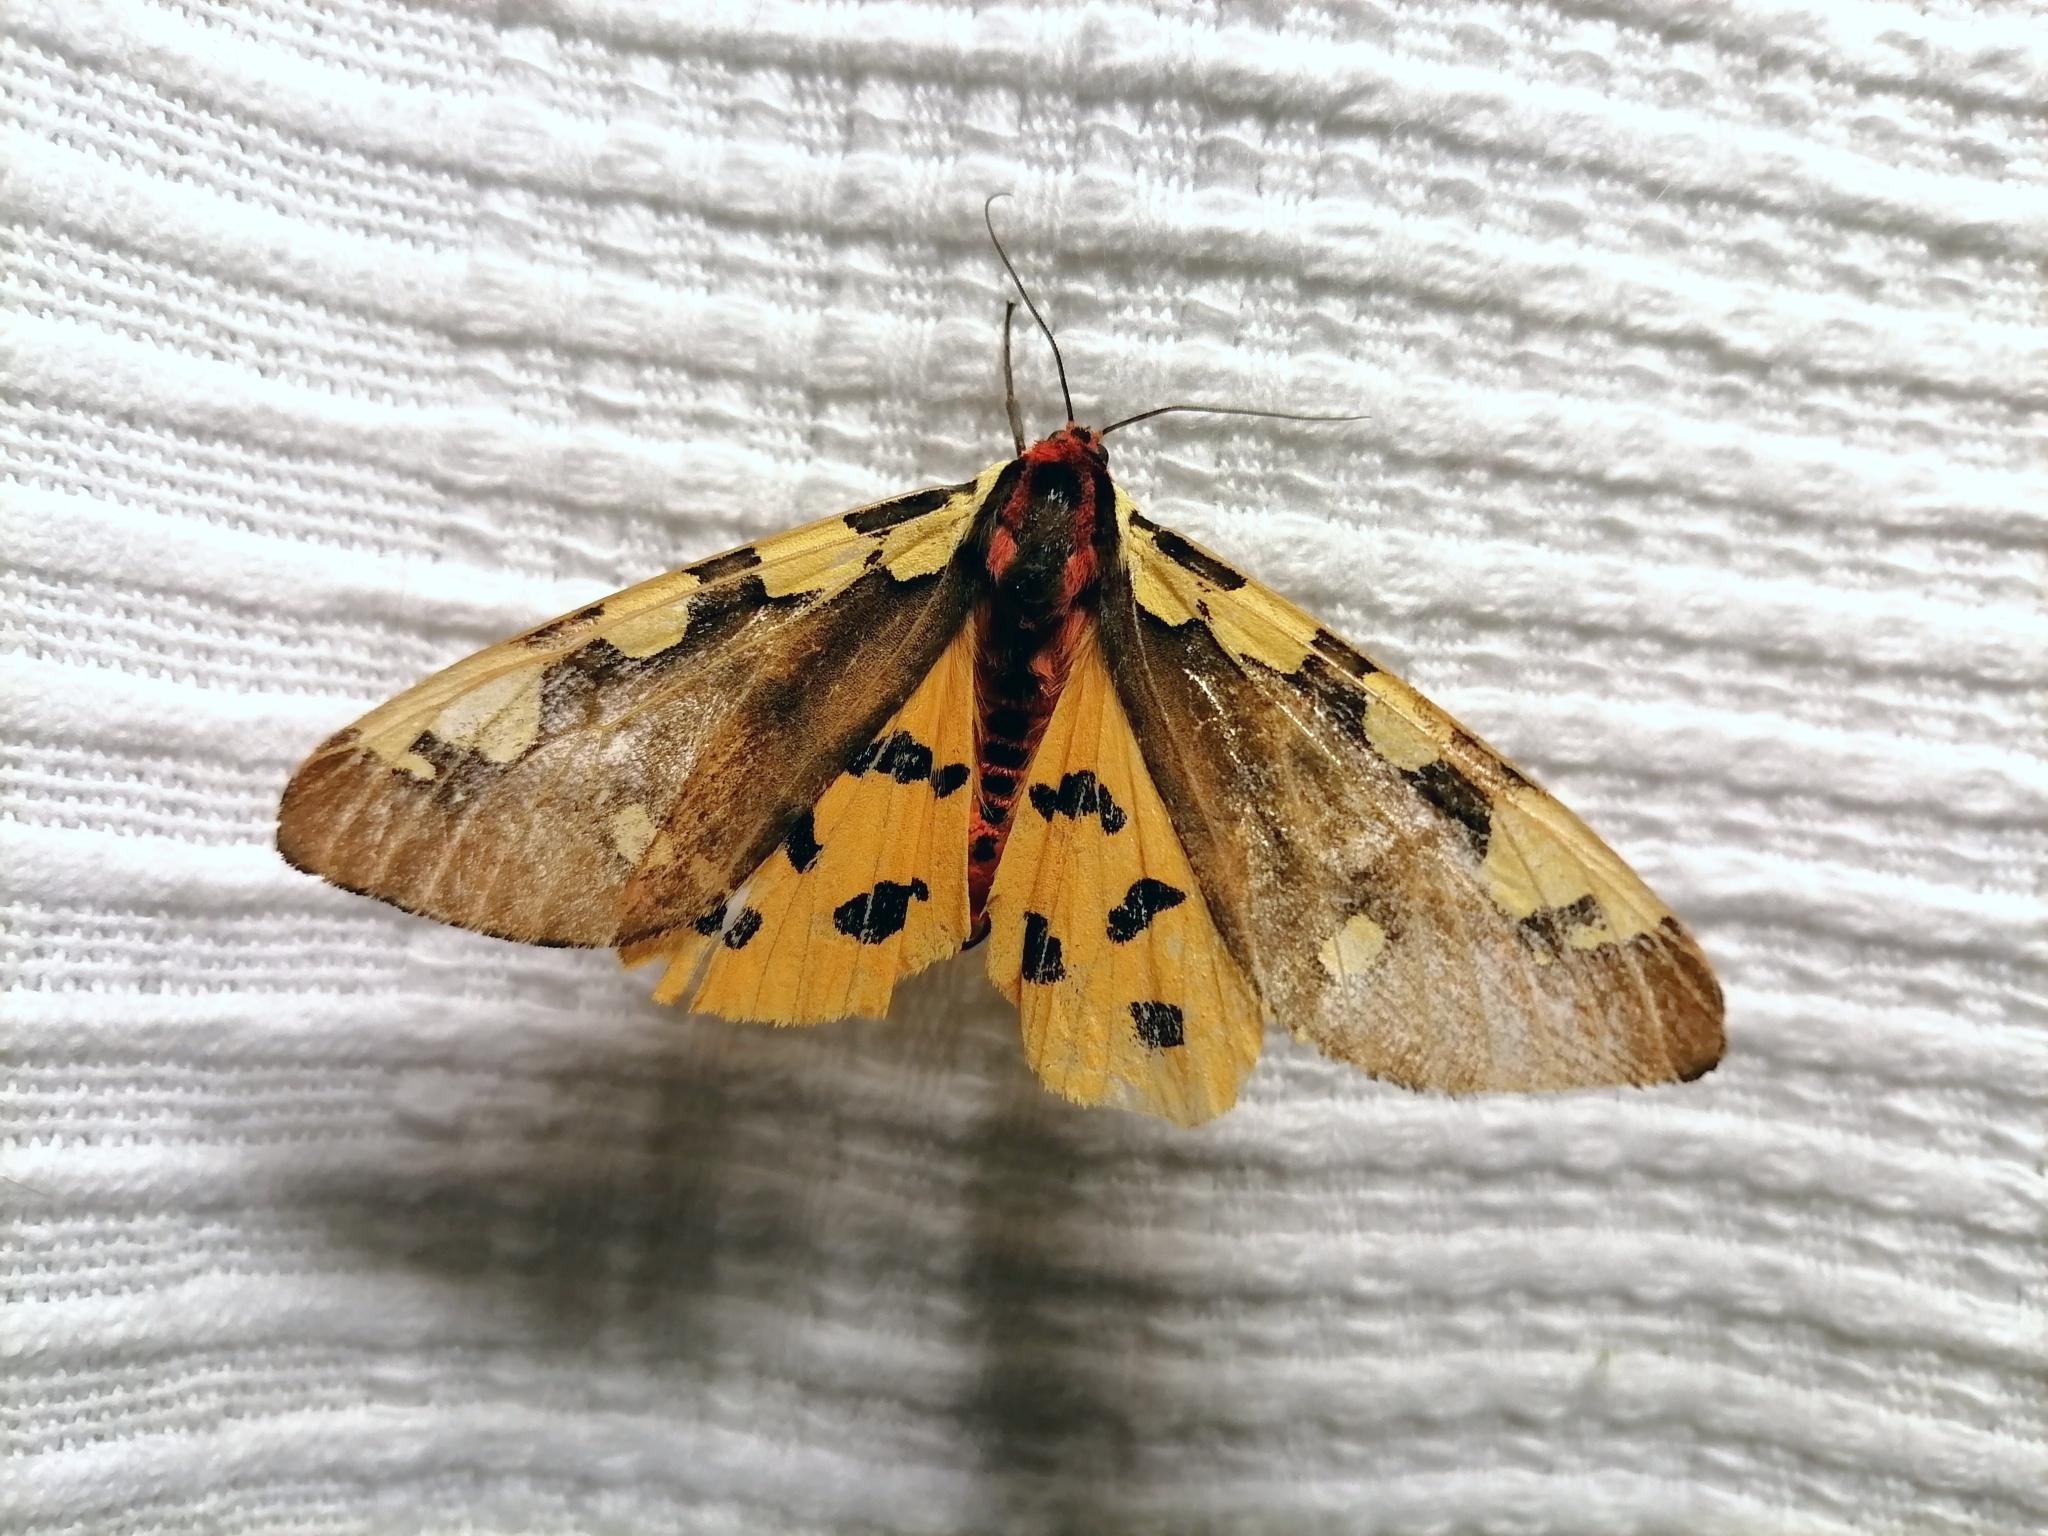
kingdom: Animalia
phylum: Arthropoda
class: Insecta
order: Lepidoptera
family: Erebidae
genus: Pericallia
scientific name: Pericallia matronula
